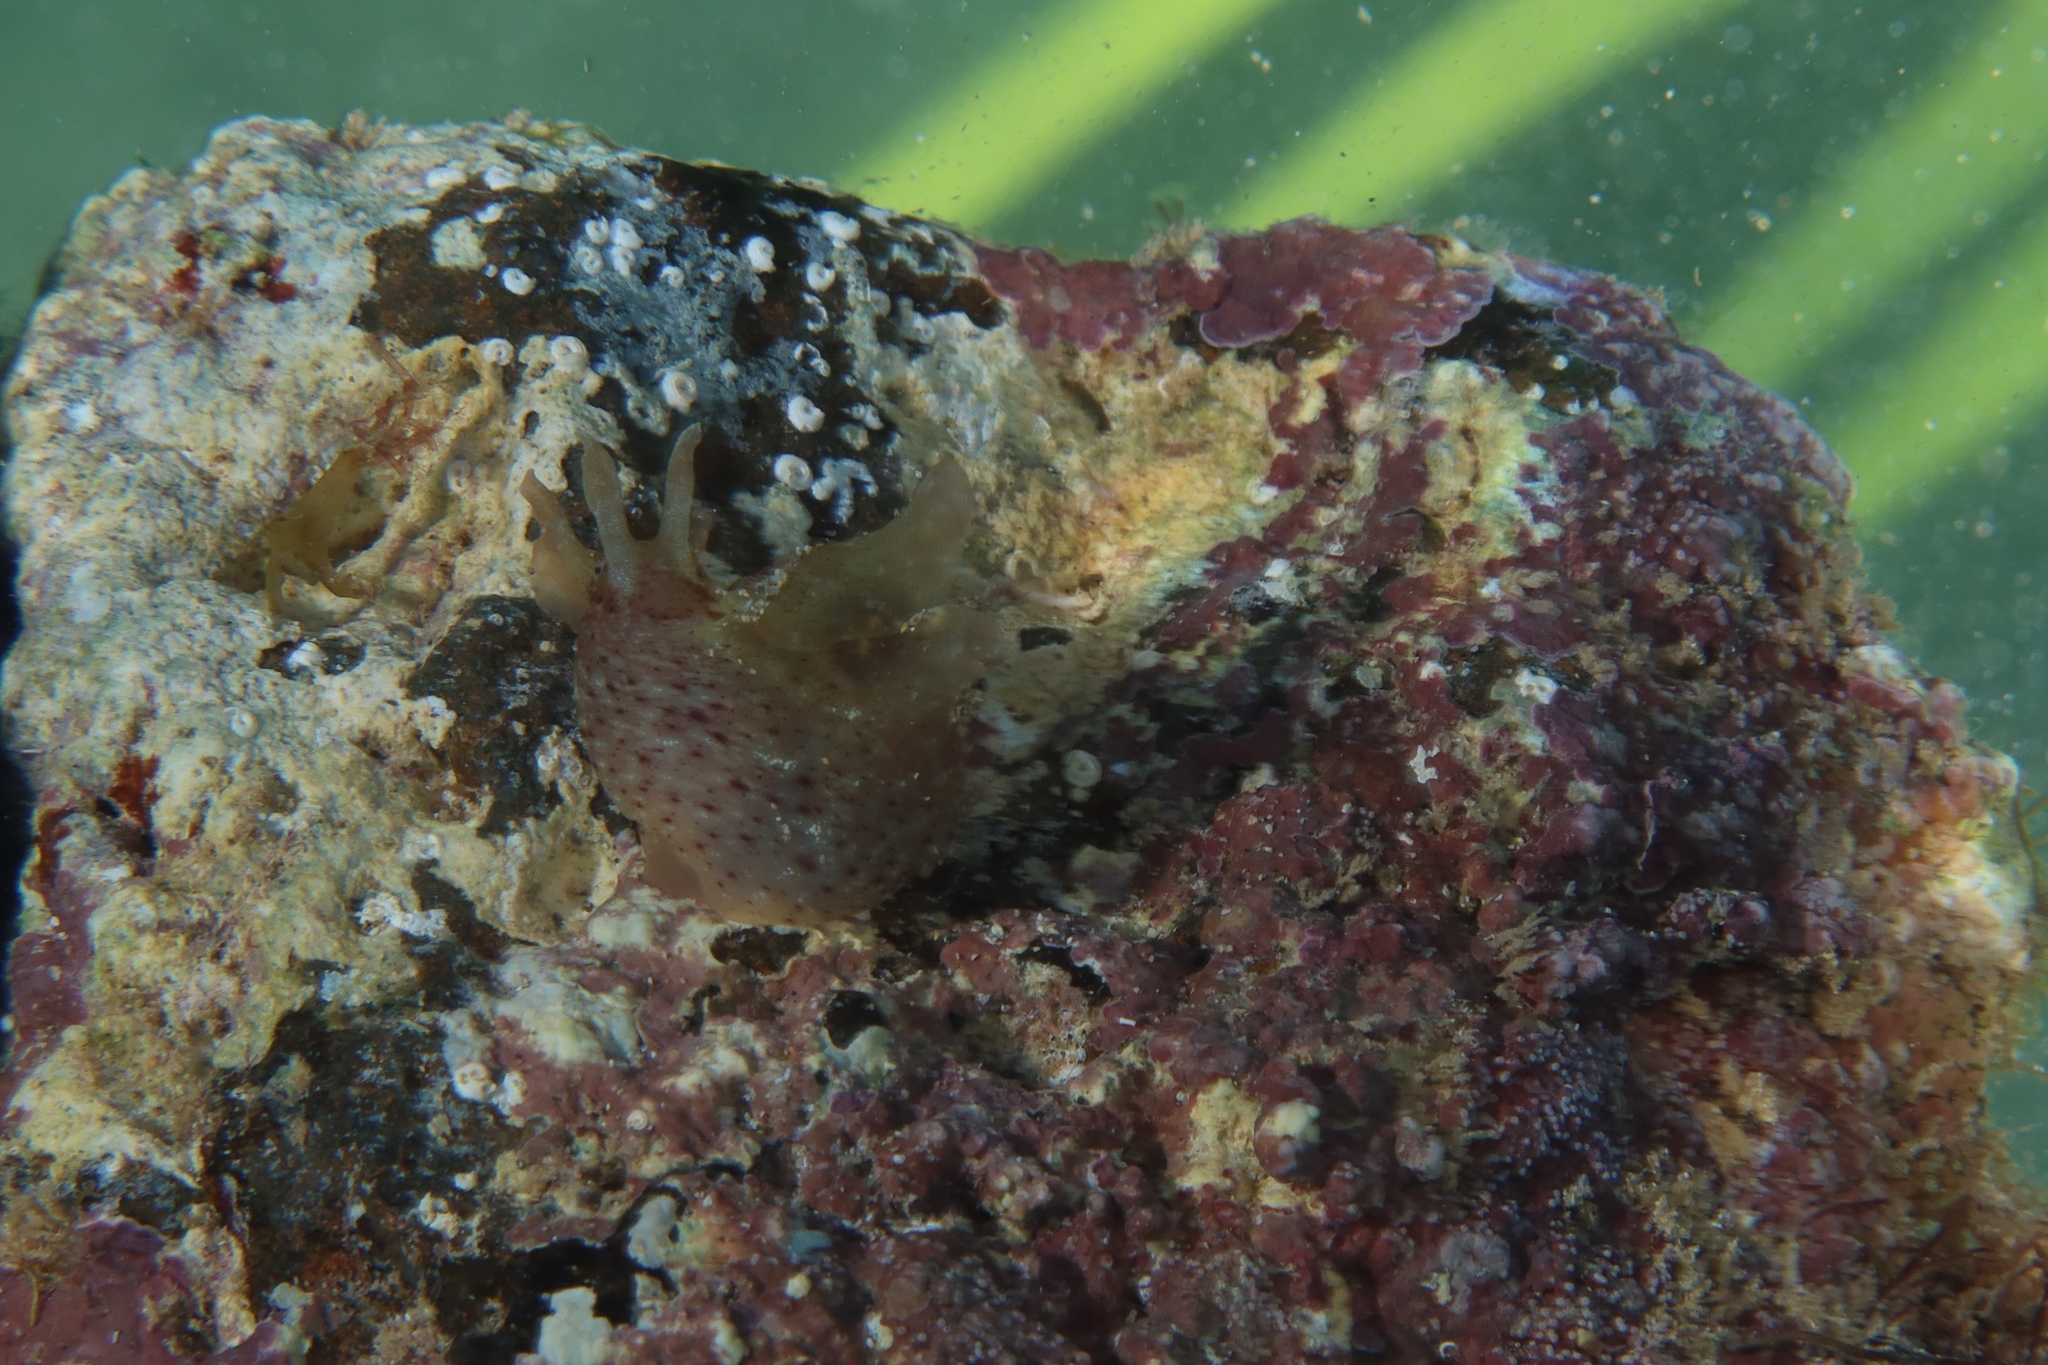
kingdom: Animalia
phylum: Mollusca
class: Gastropoda
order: Aplysiida
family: Aplysiidae
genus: Aplysia
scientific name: Aplysia punctata
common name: Common sea hare
